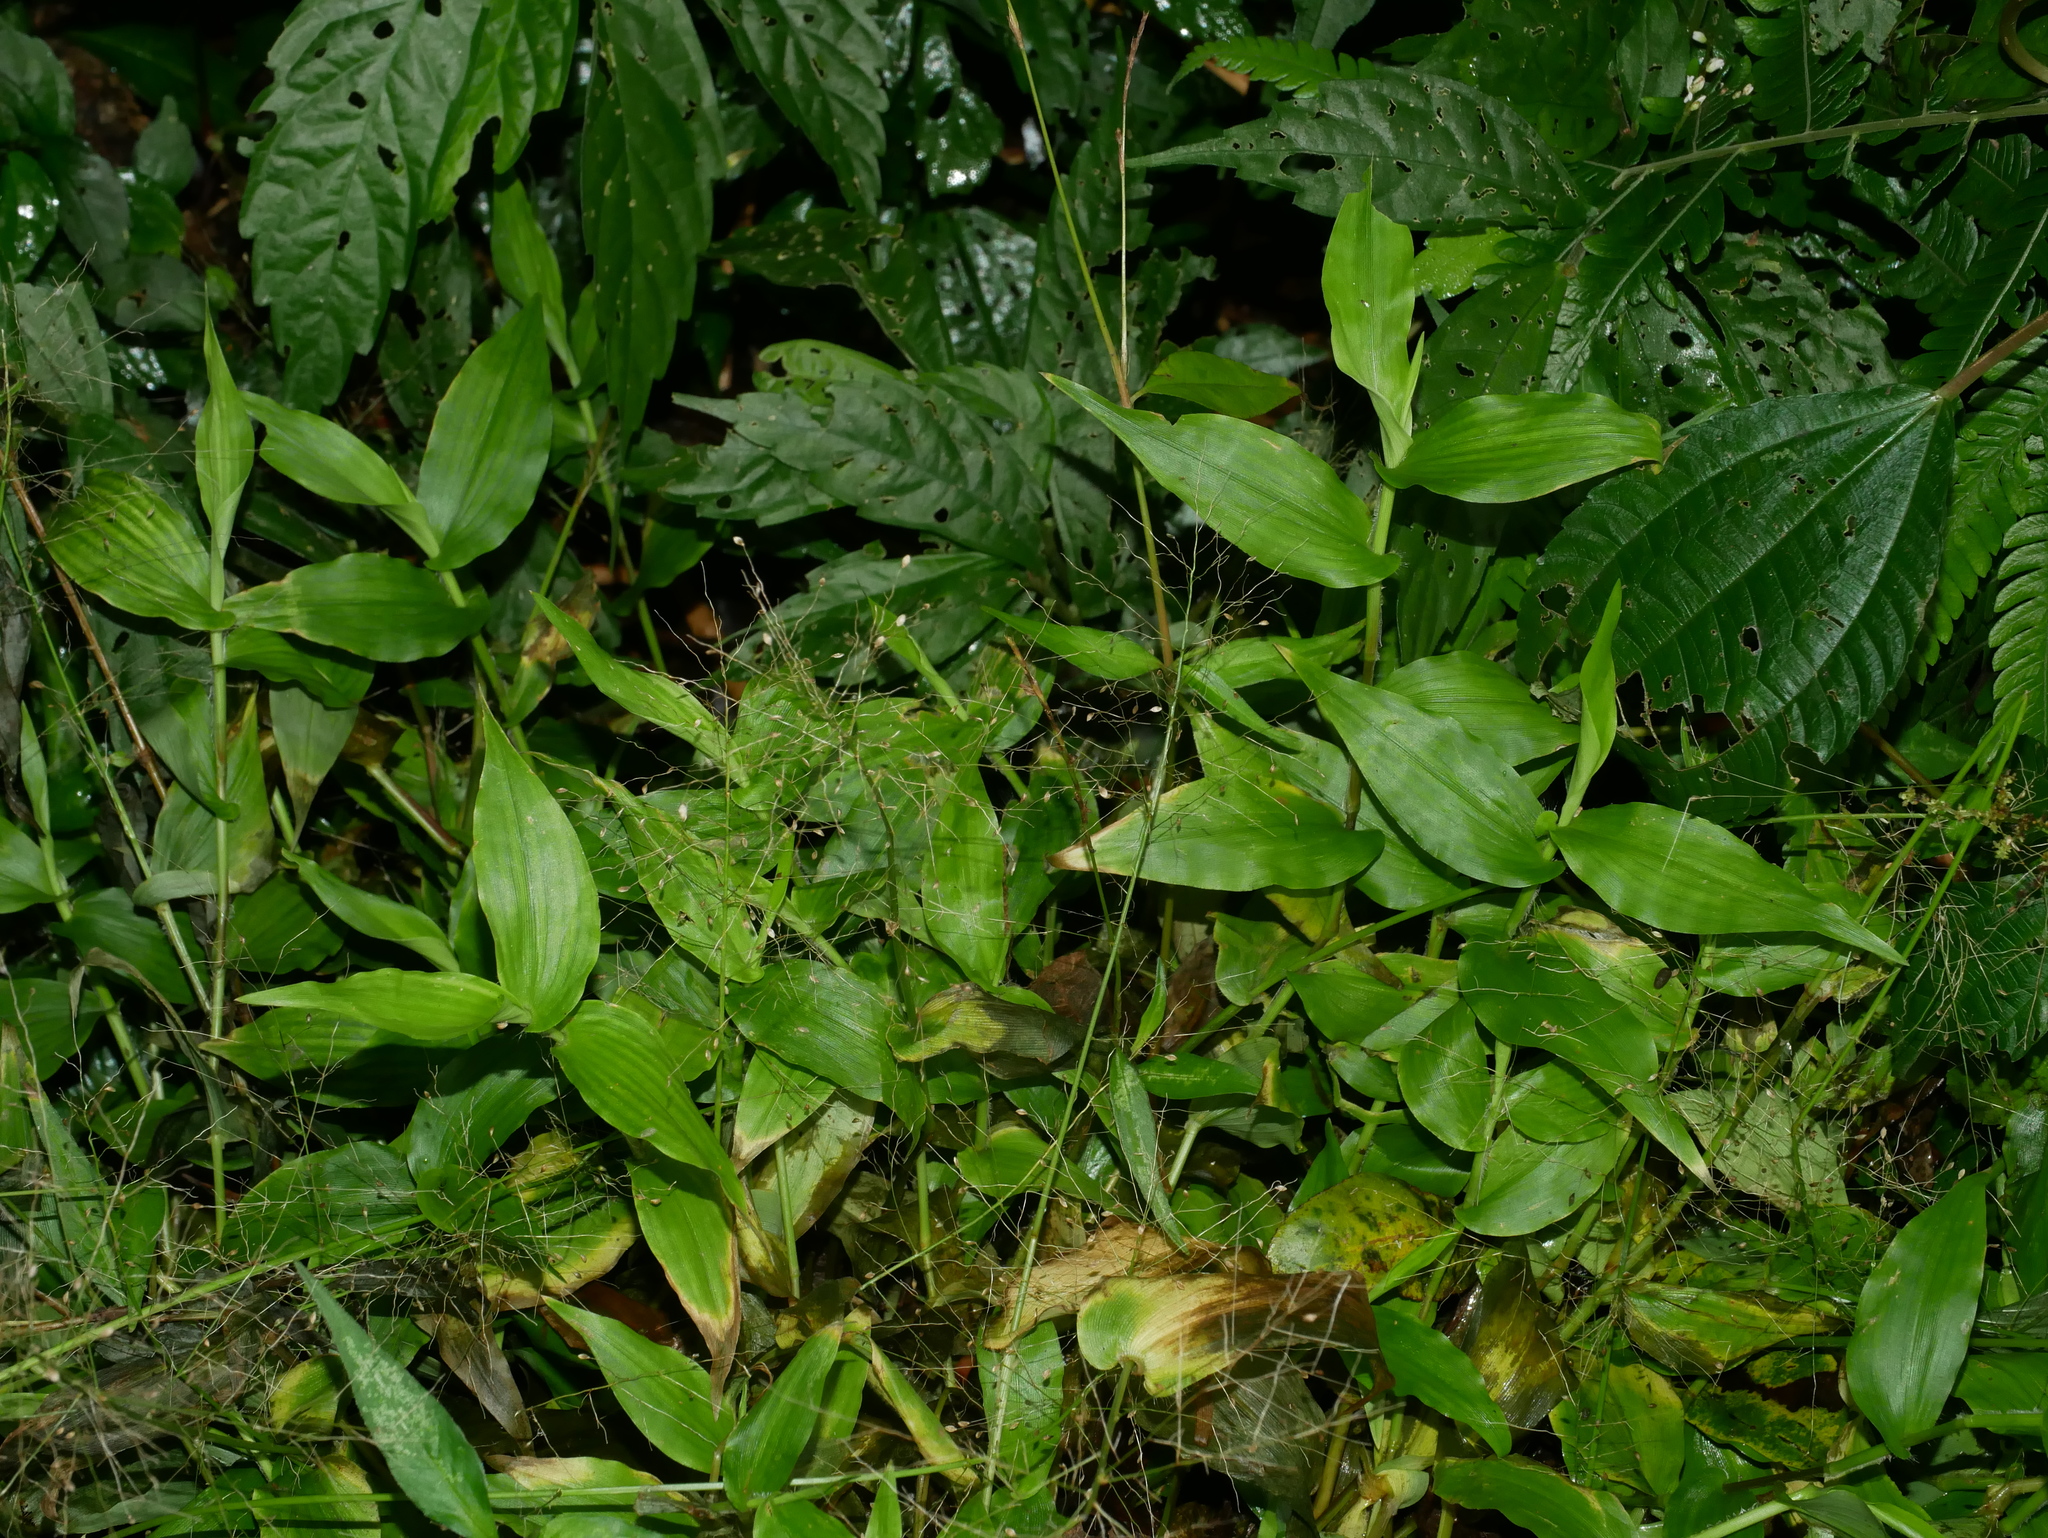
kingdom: Plantae
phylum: Tracheophyta
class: Liliopsida
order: Poales
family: Poaceae
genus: Panicum
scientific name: Panicum brevifolium
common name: Shortleaf panic grass
